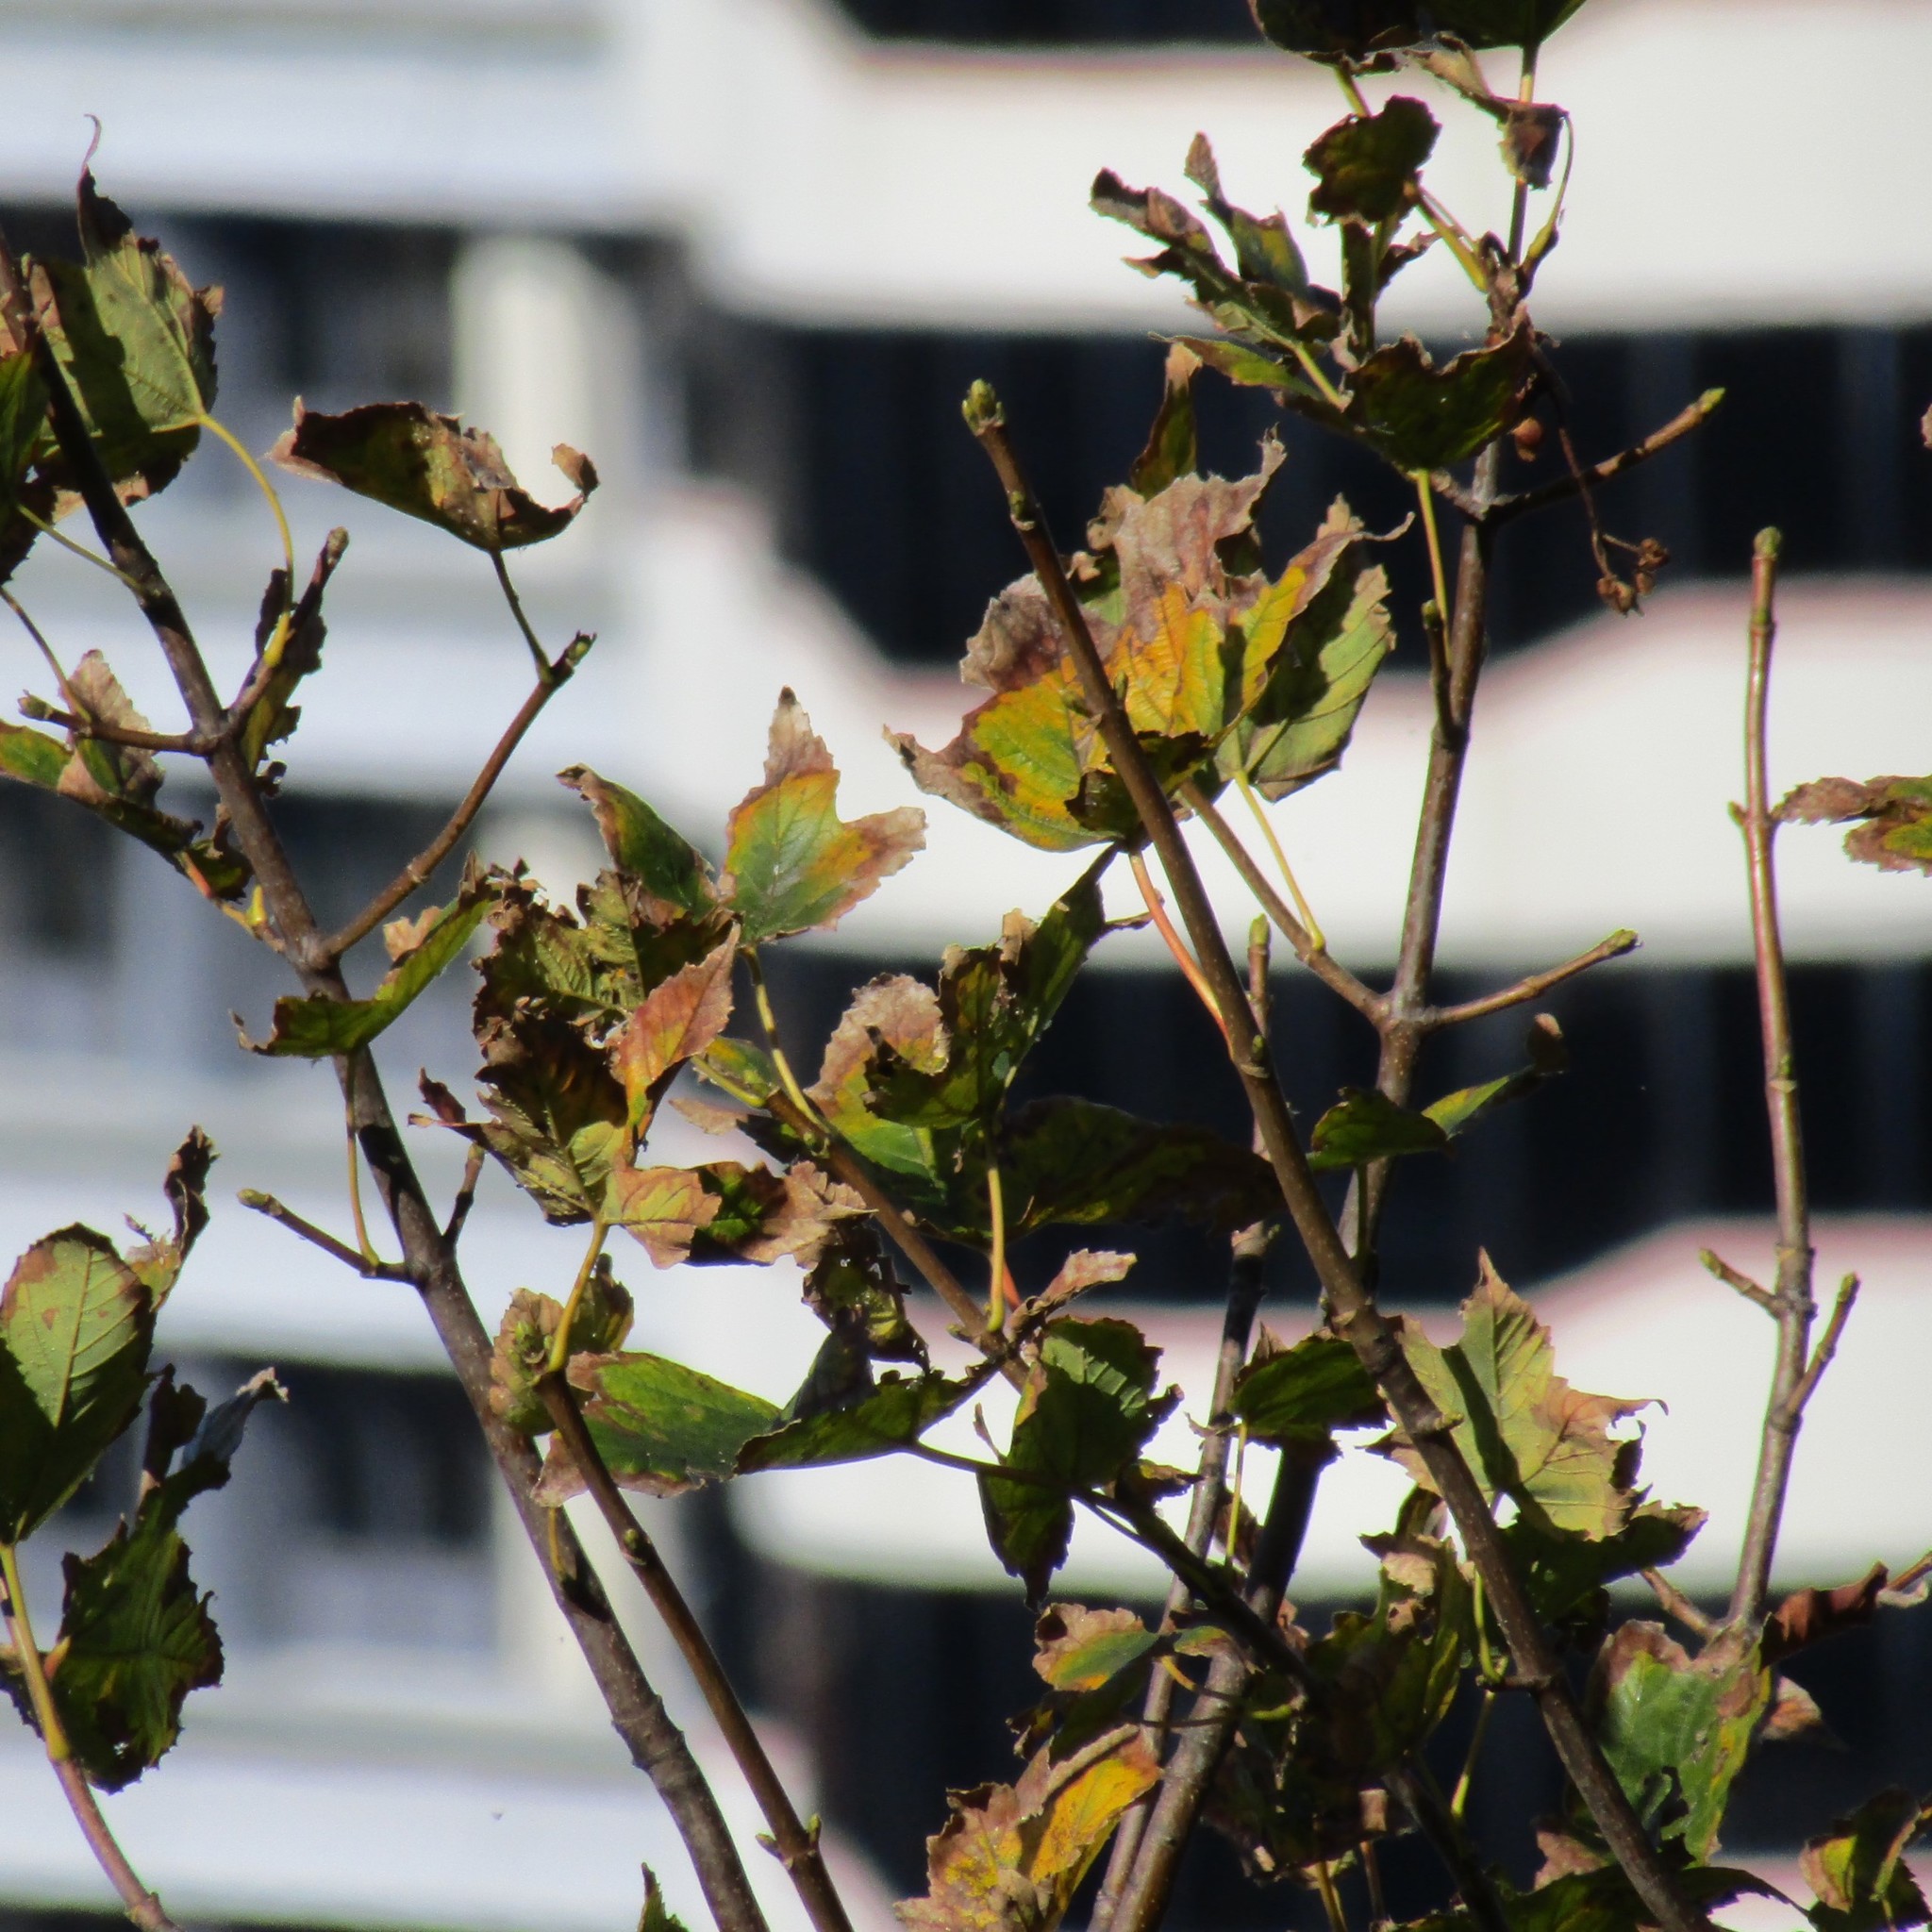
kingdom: Plantae
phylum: Tracheophyta
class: Magnoliopsida
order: Sapindales
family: Sapindaceae
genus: Acer
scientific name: Acer pseudoplatanus
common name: Sycamore
